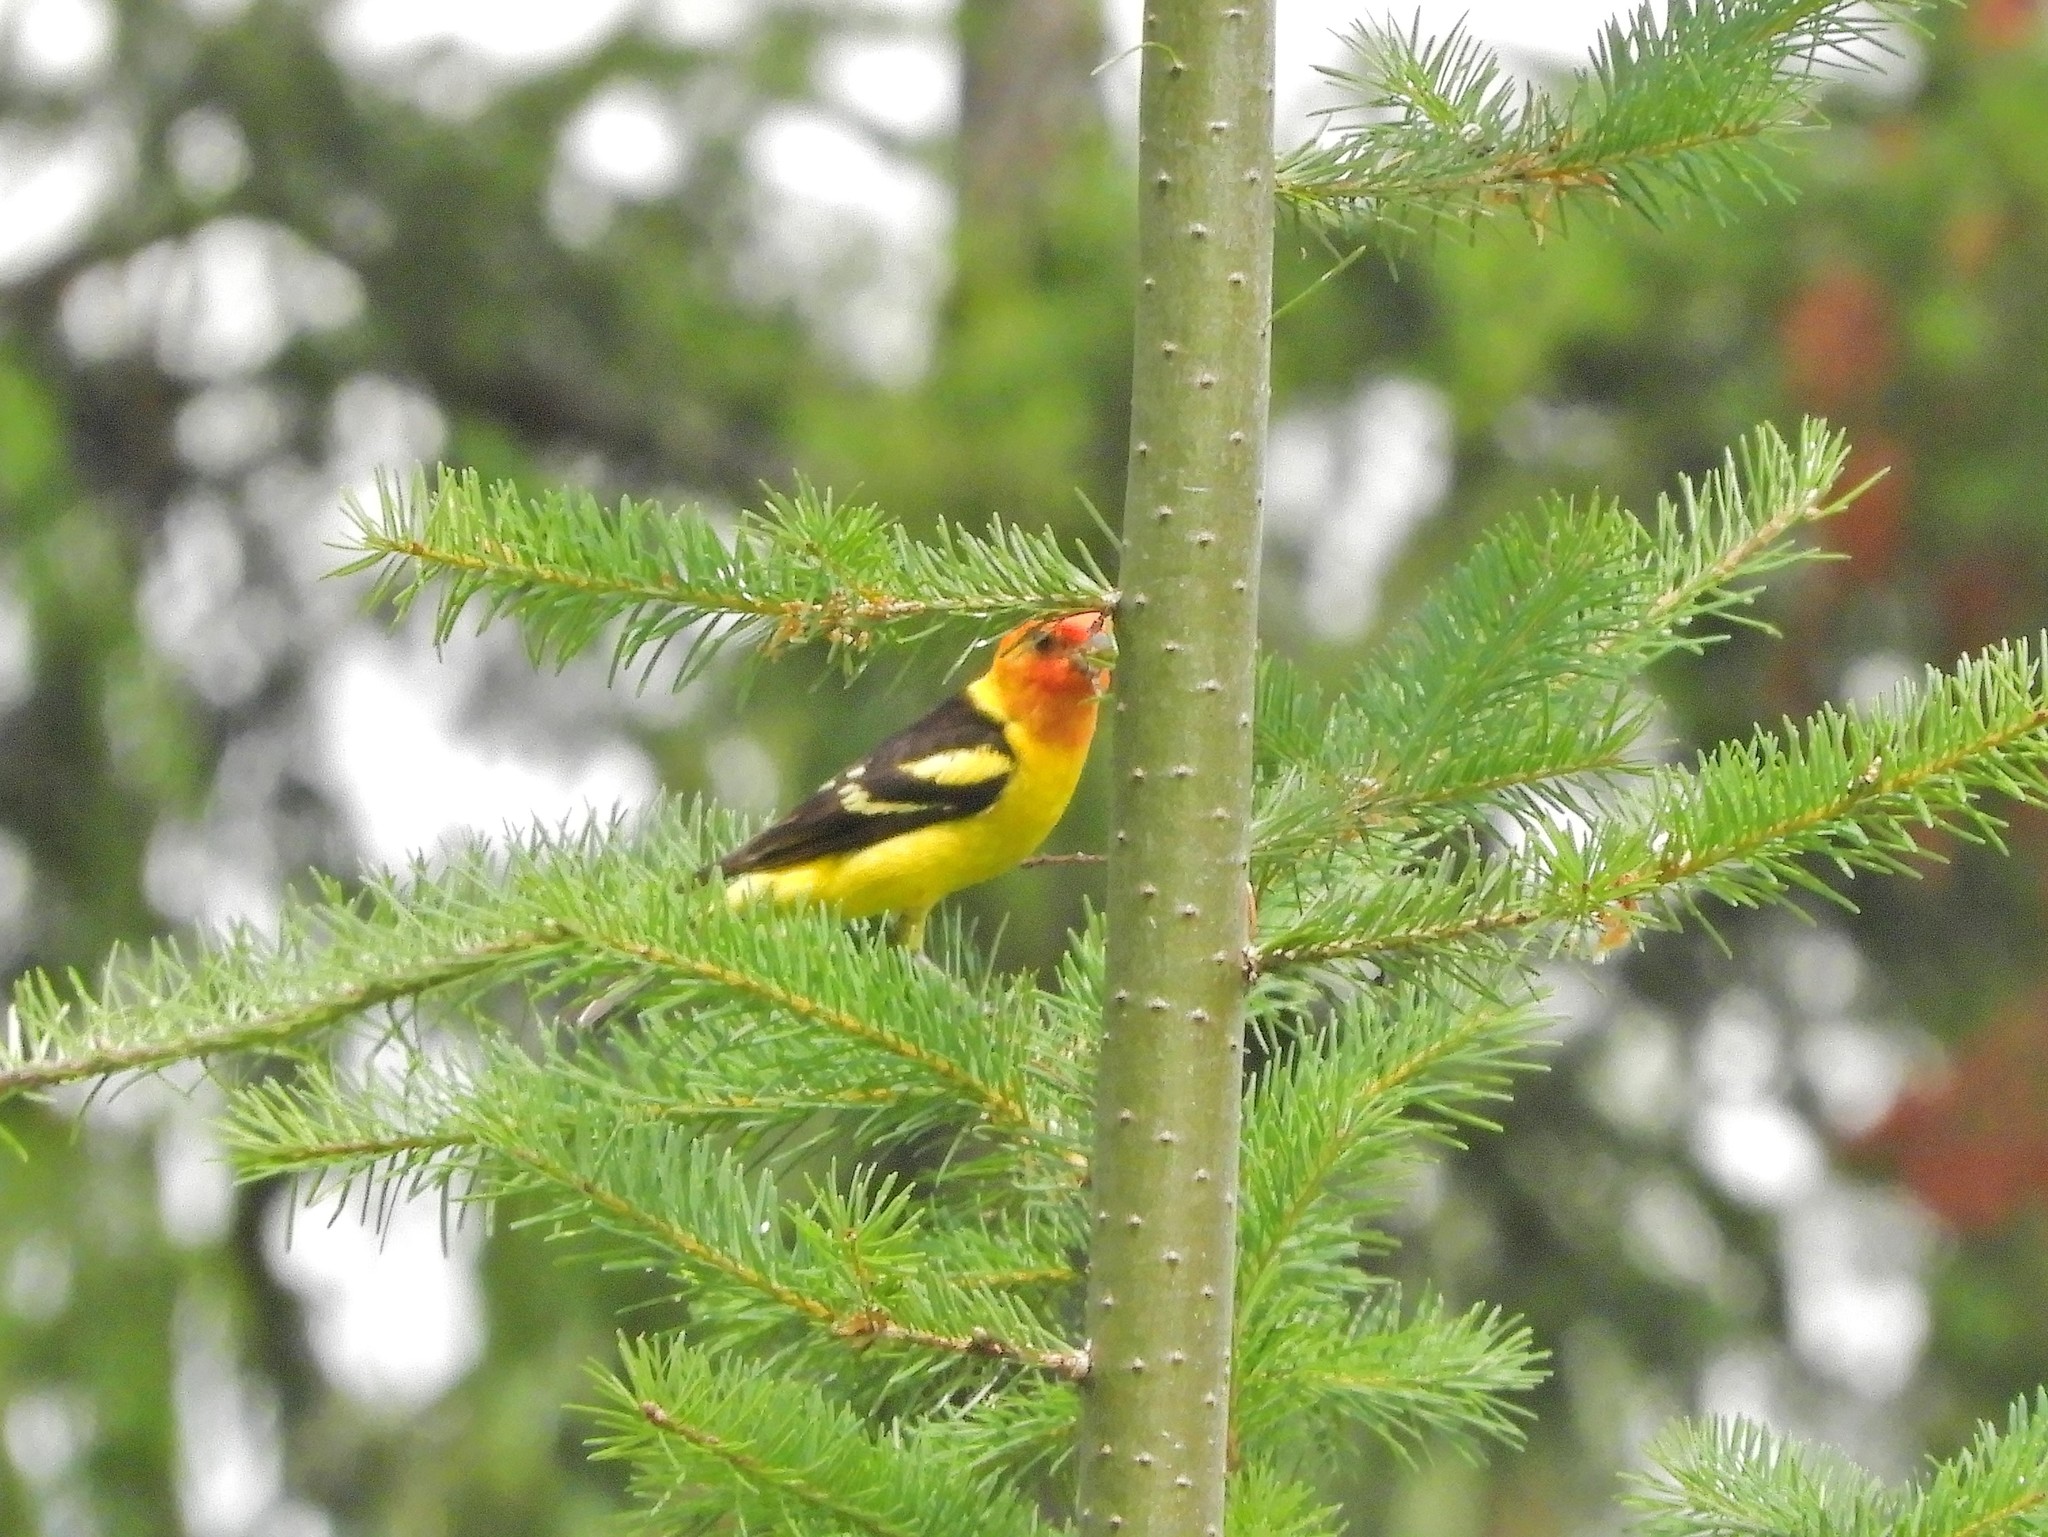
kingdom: Animalia
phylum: Chordata
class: Aves
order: Passeriformes
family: Cardinalidae
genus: Piranga
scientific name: Piranga ludoviciana
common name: Western tanager
